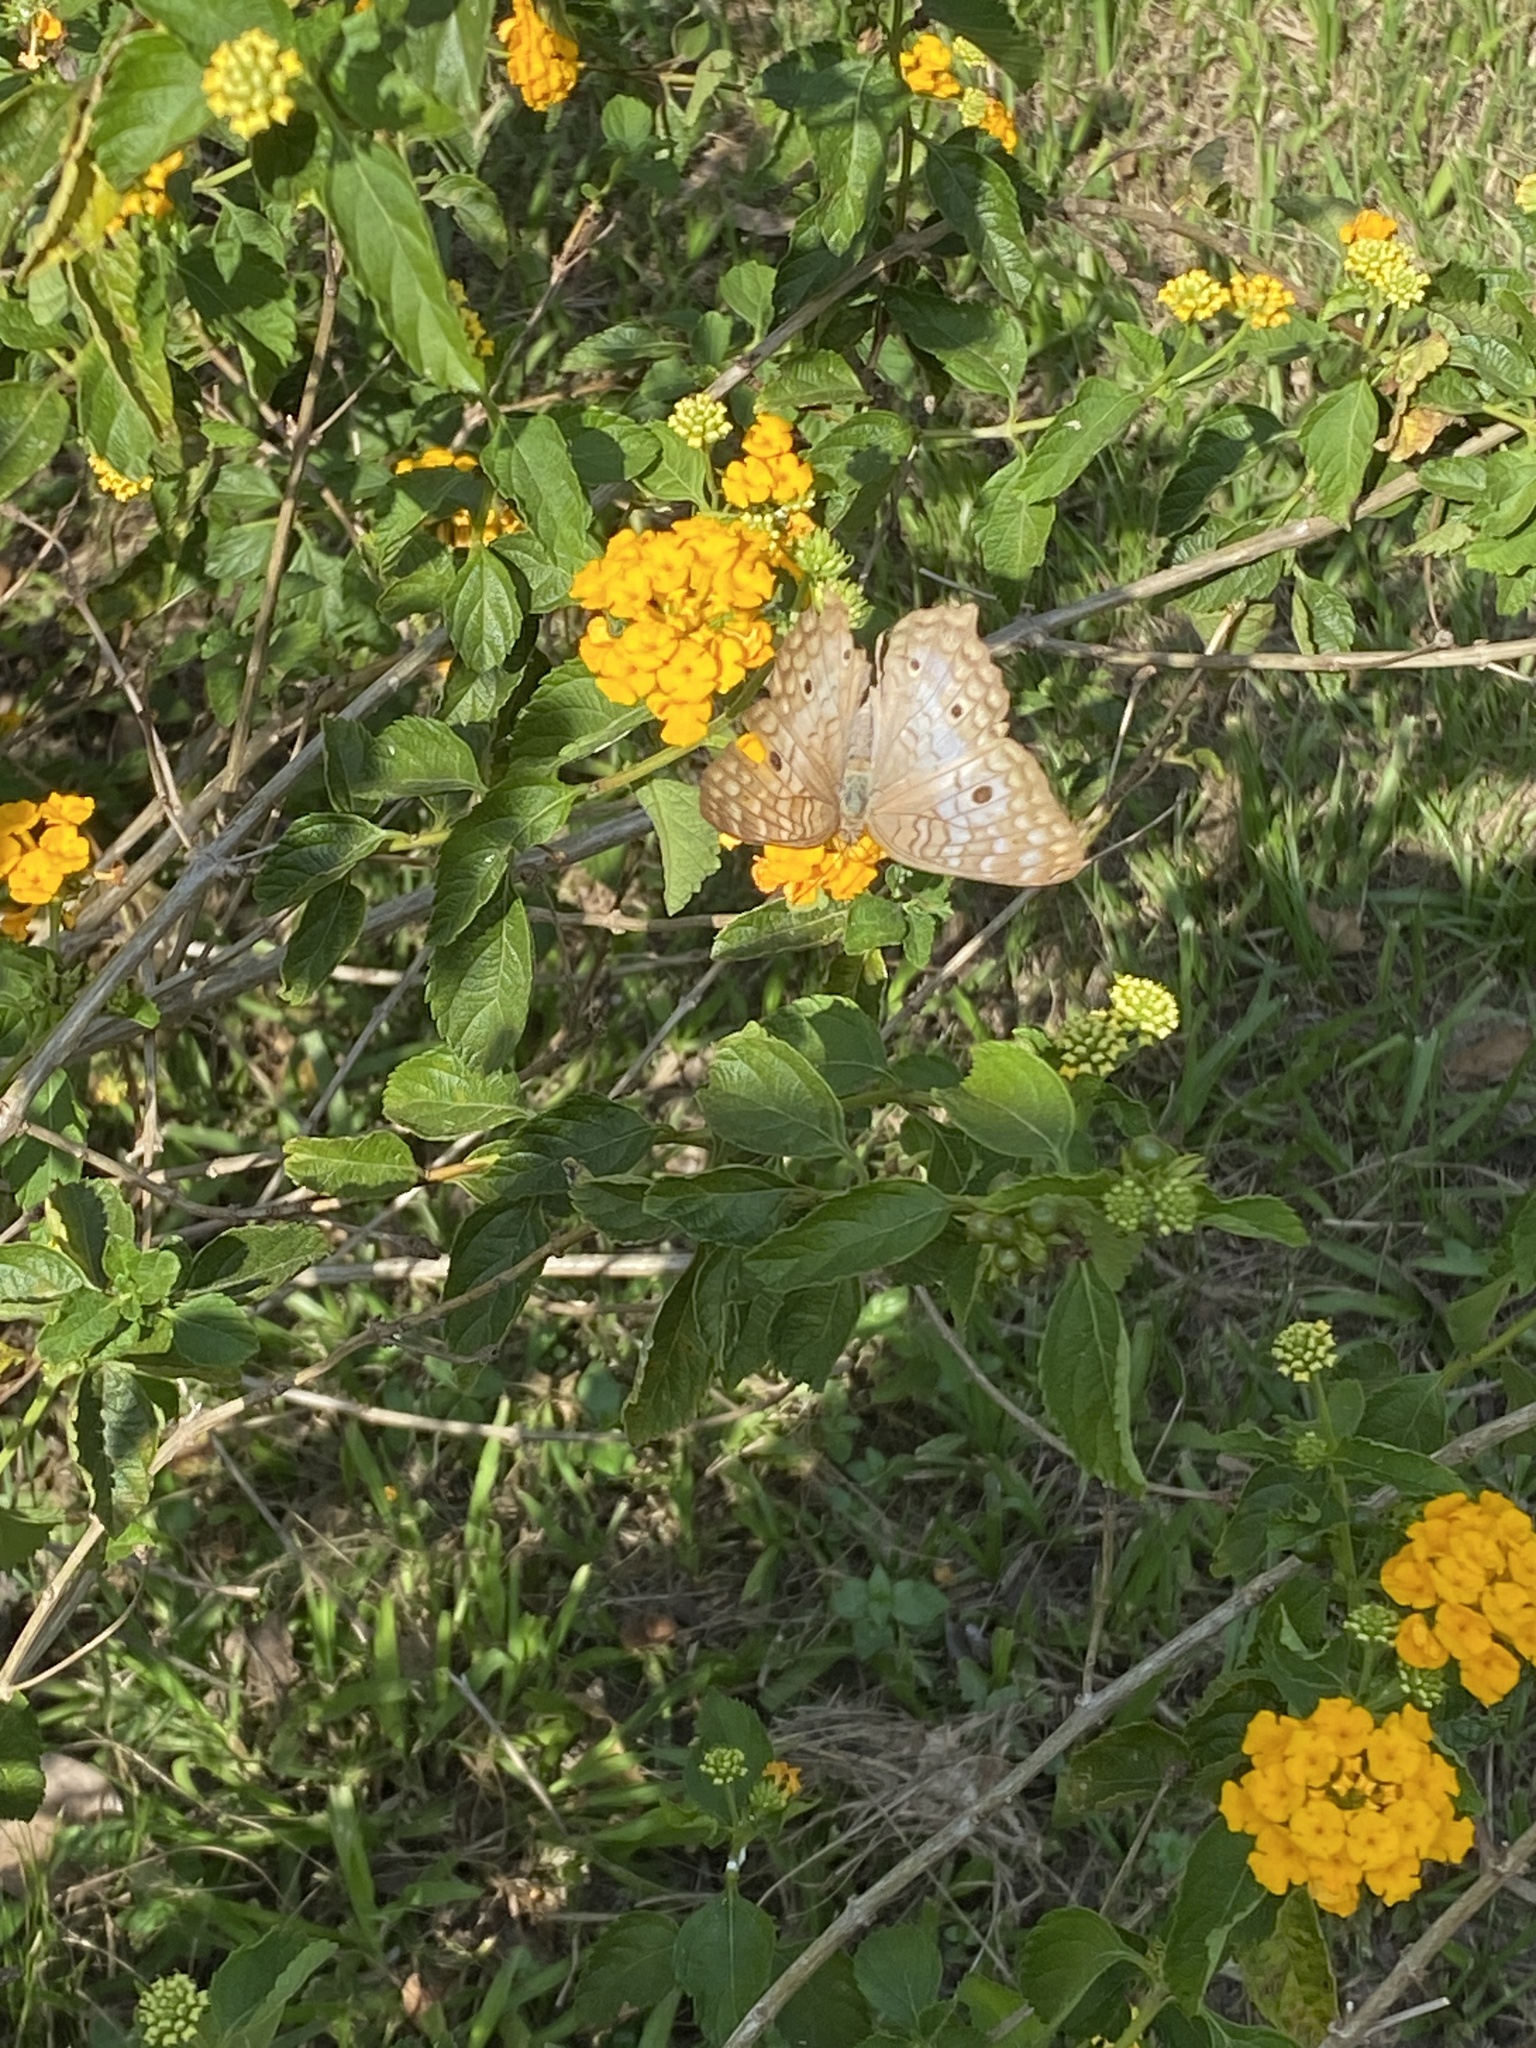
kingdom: Animalia
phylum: Arthropoda
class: Insecta
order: Lepidoptera
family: Nymphalidae
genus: Anartia
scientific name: Anartia jatrophae
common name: White peacock
